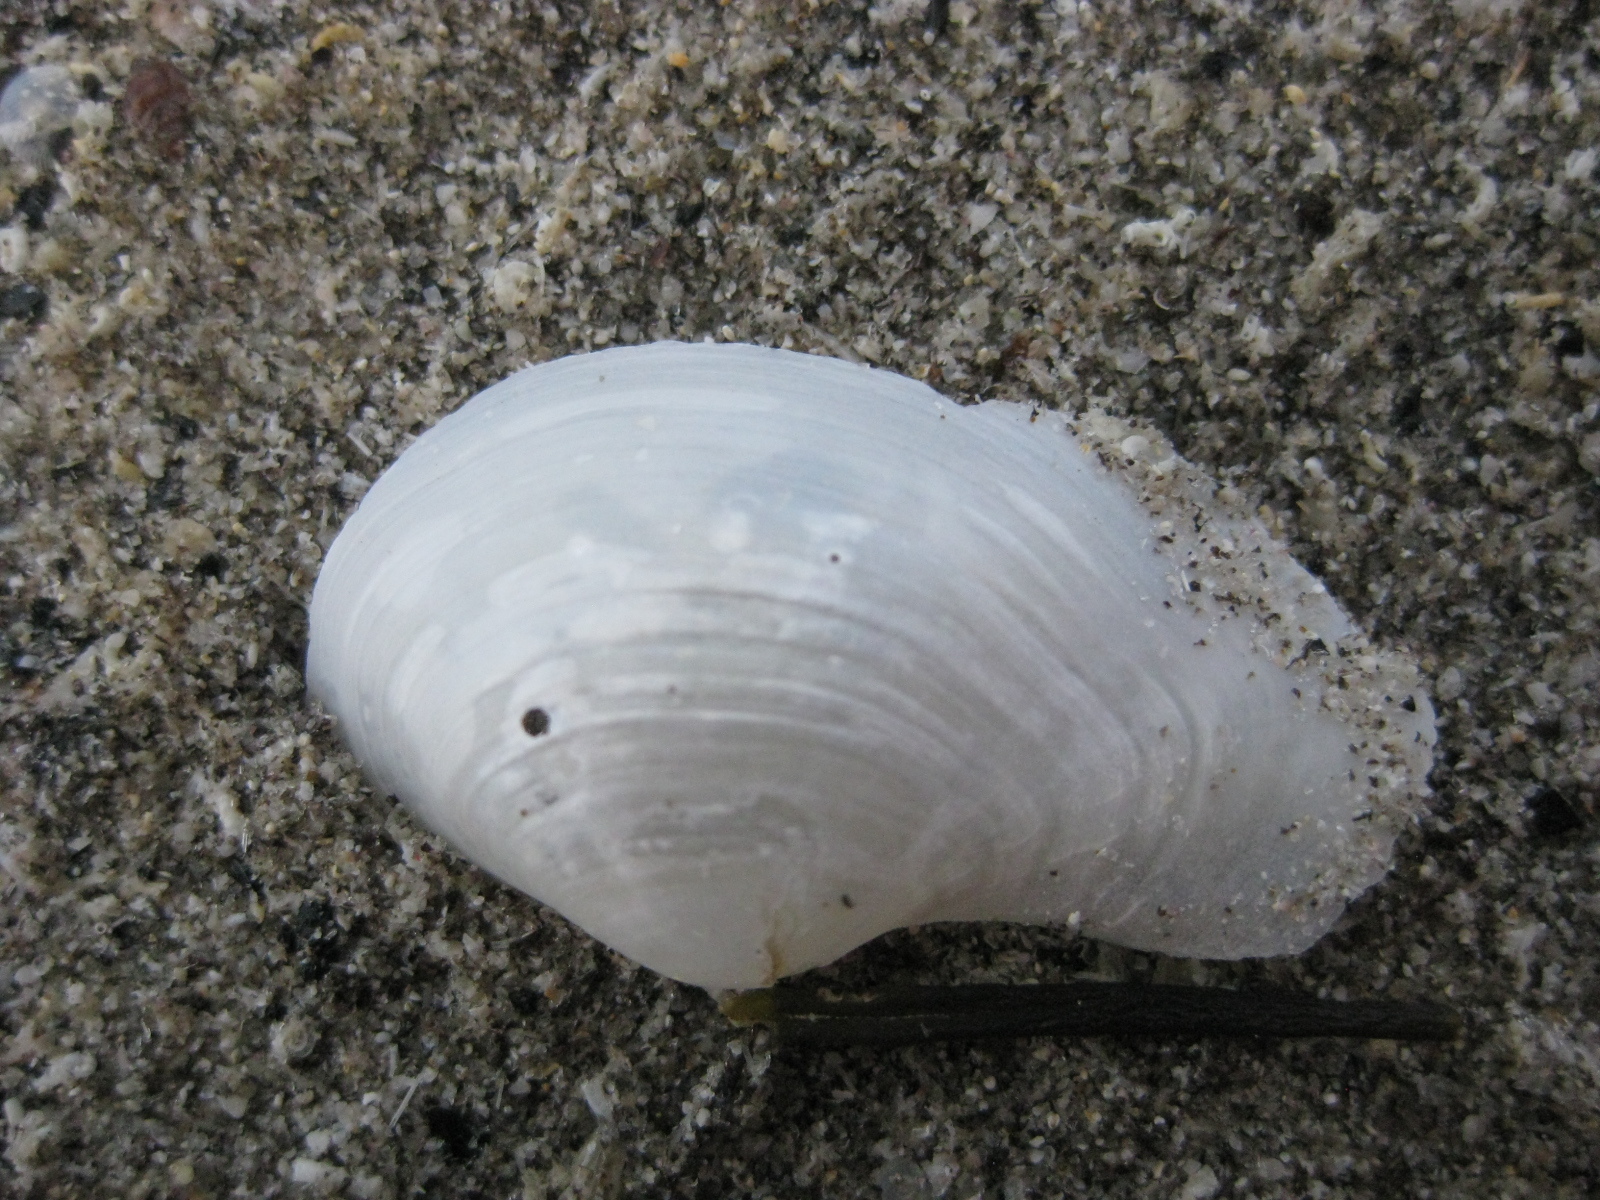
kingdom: Animalia
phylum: Mollusca
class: Bivalvia
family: Periplomatidae
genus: Offadesma
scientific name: Offadesma angasi
